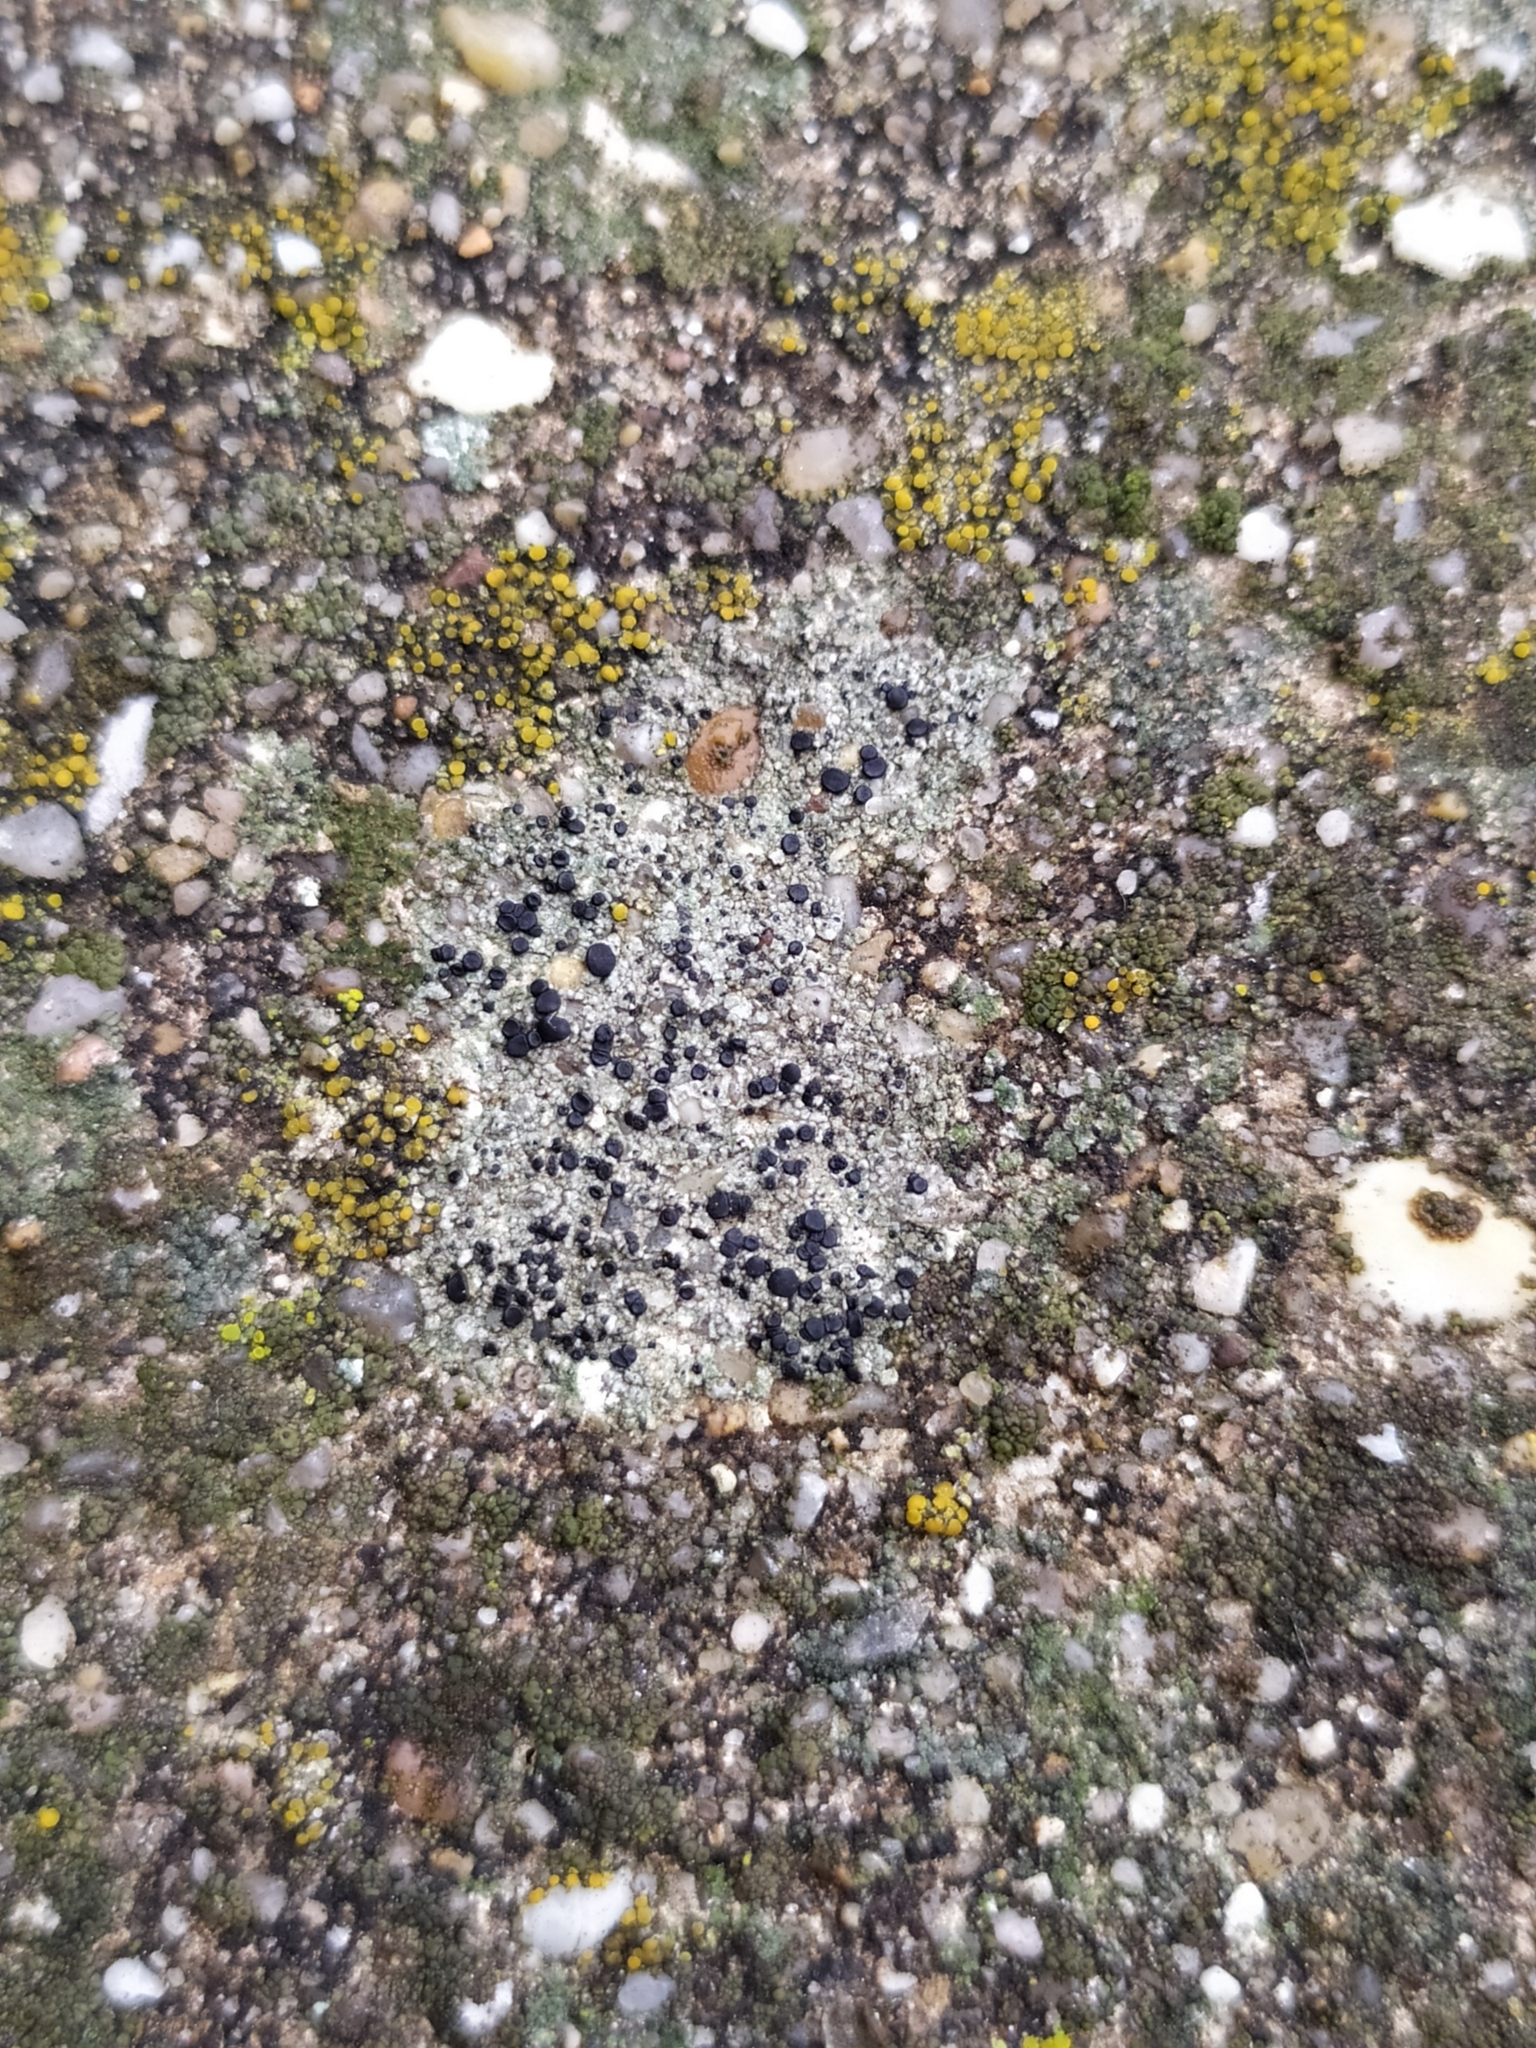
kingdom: Fungi
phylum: Ascomycota
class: Lecanoromycetes
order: Lecanorales
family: Lecanoraceae
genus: Lecidella
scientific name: Lecidella stigmatea
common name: Limestone disc lichen
